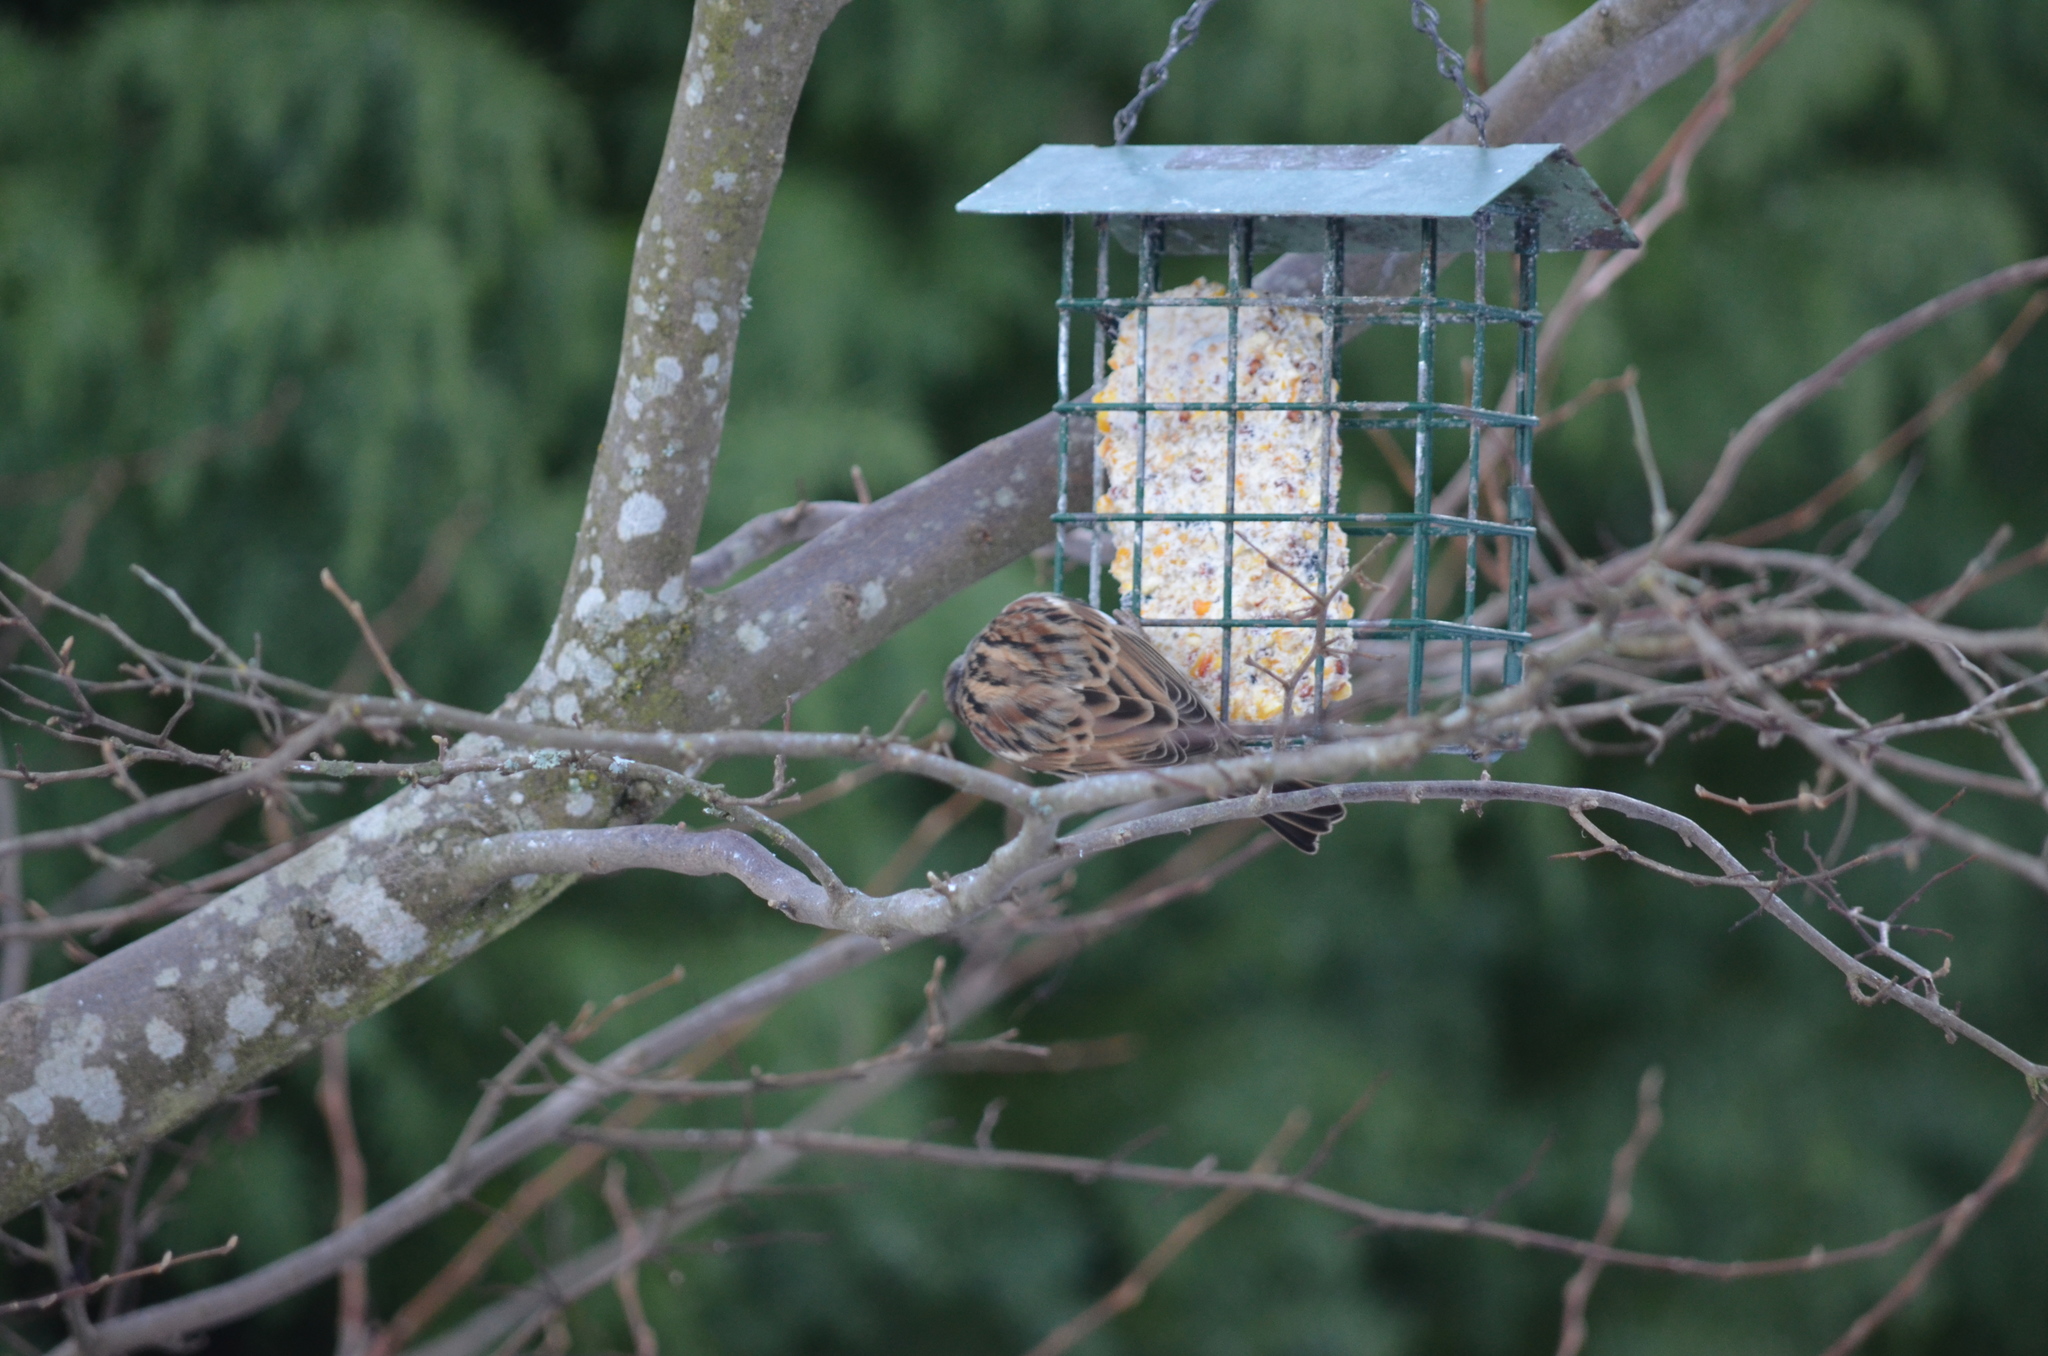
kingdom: Animalia
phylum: Chordata
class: Aves
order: Passeriformes
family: Passeridae
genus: Passer
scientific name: Passer domesticus
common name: House sparrow
